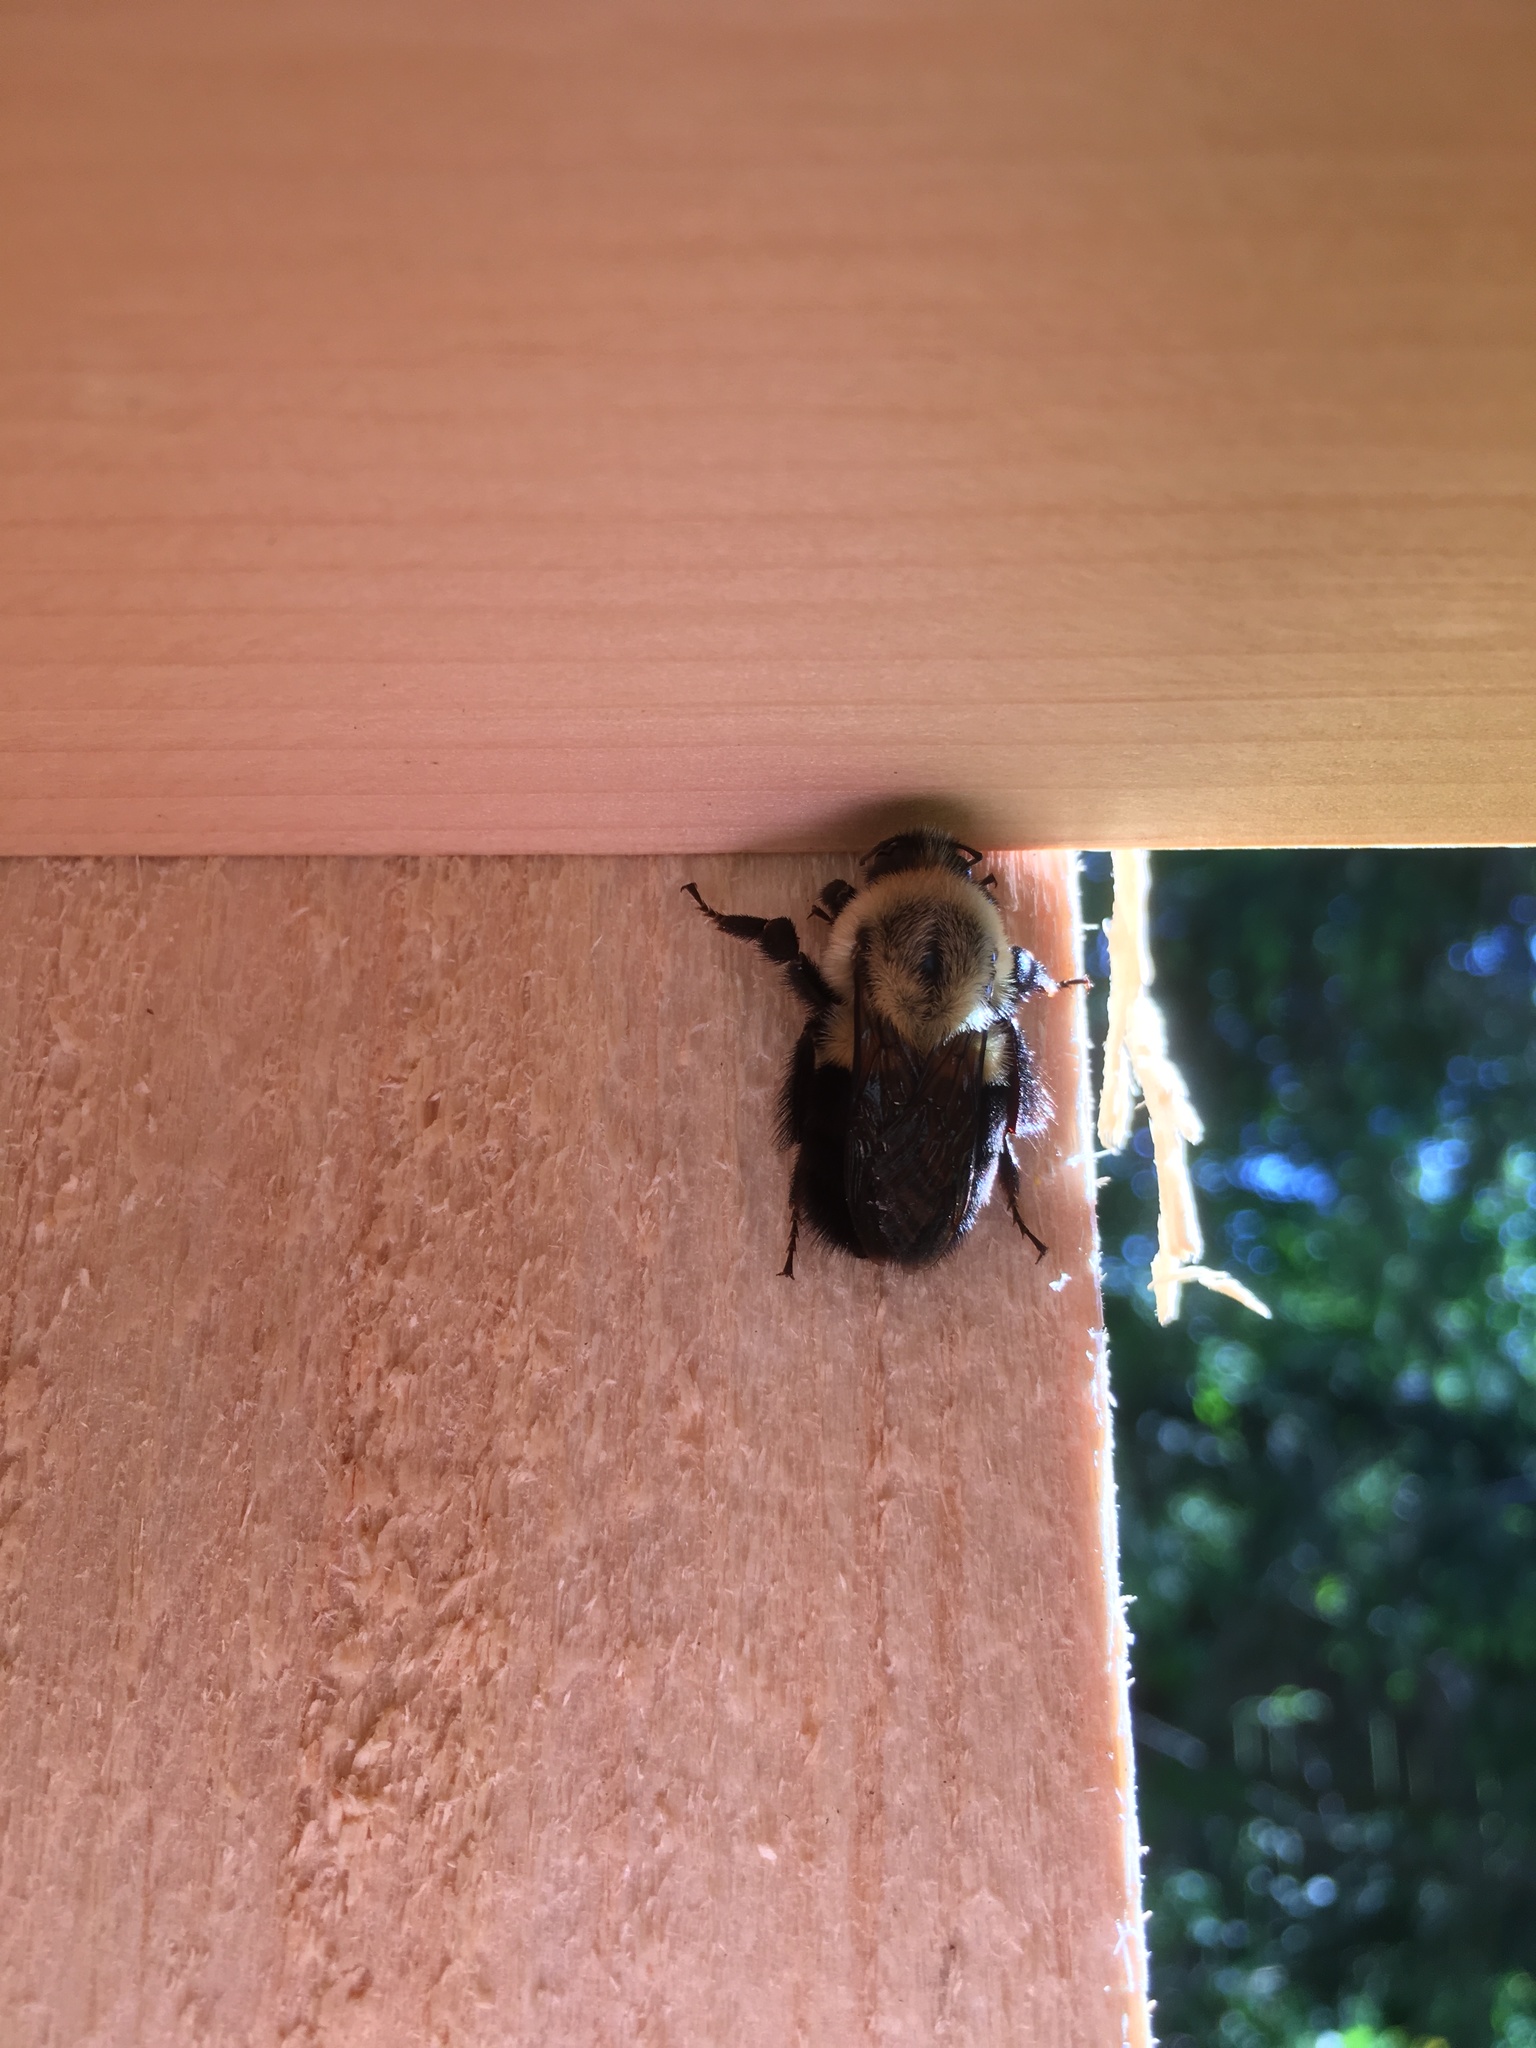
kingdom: Animalia
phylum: Arthropoda
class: Insecta
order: Hymenoptera
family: Apidae
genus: Bombus
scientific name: Bombus impatiens
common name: Common eastern bumble bee
